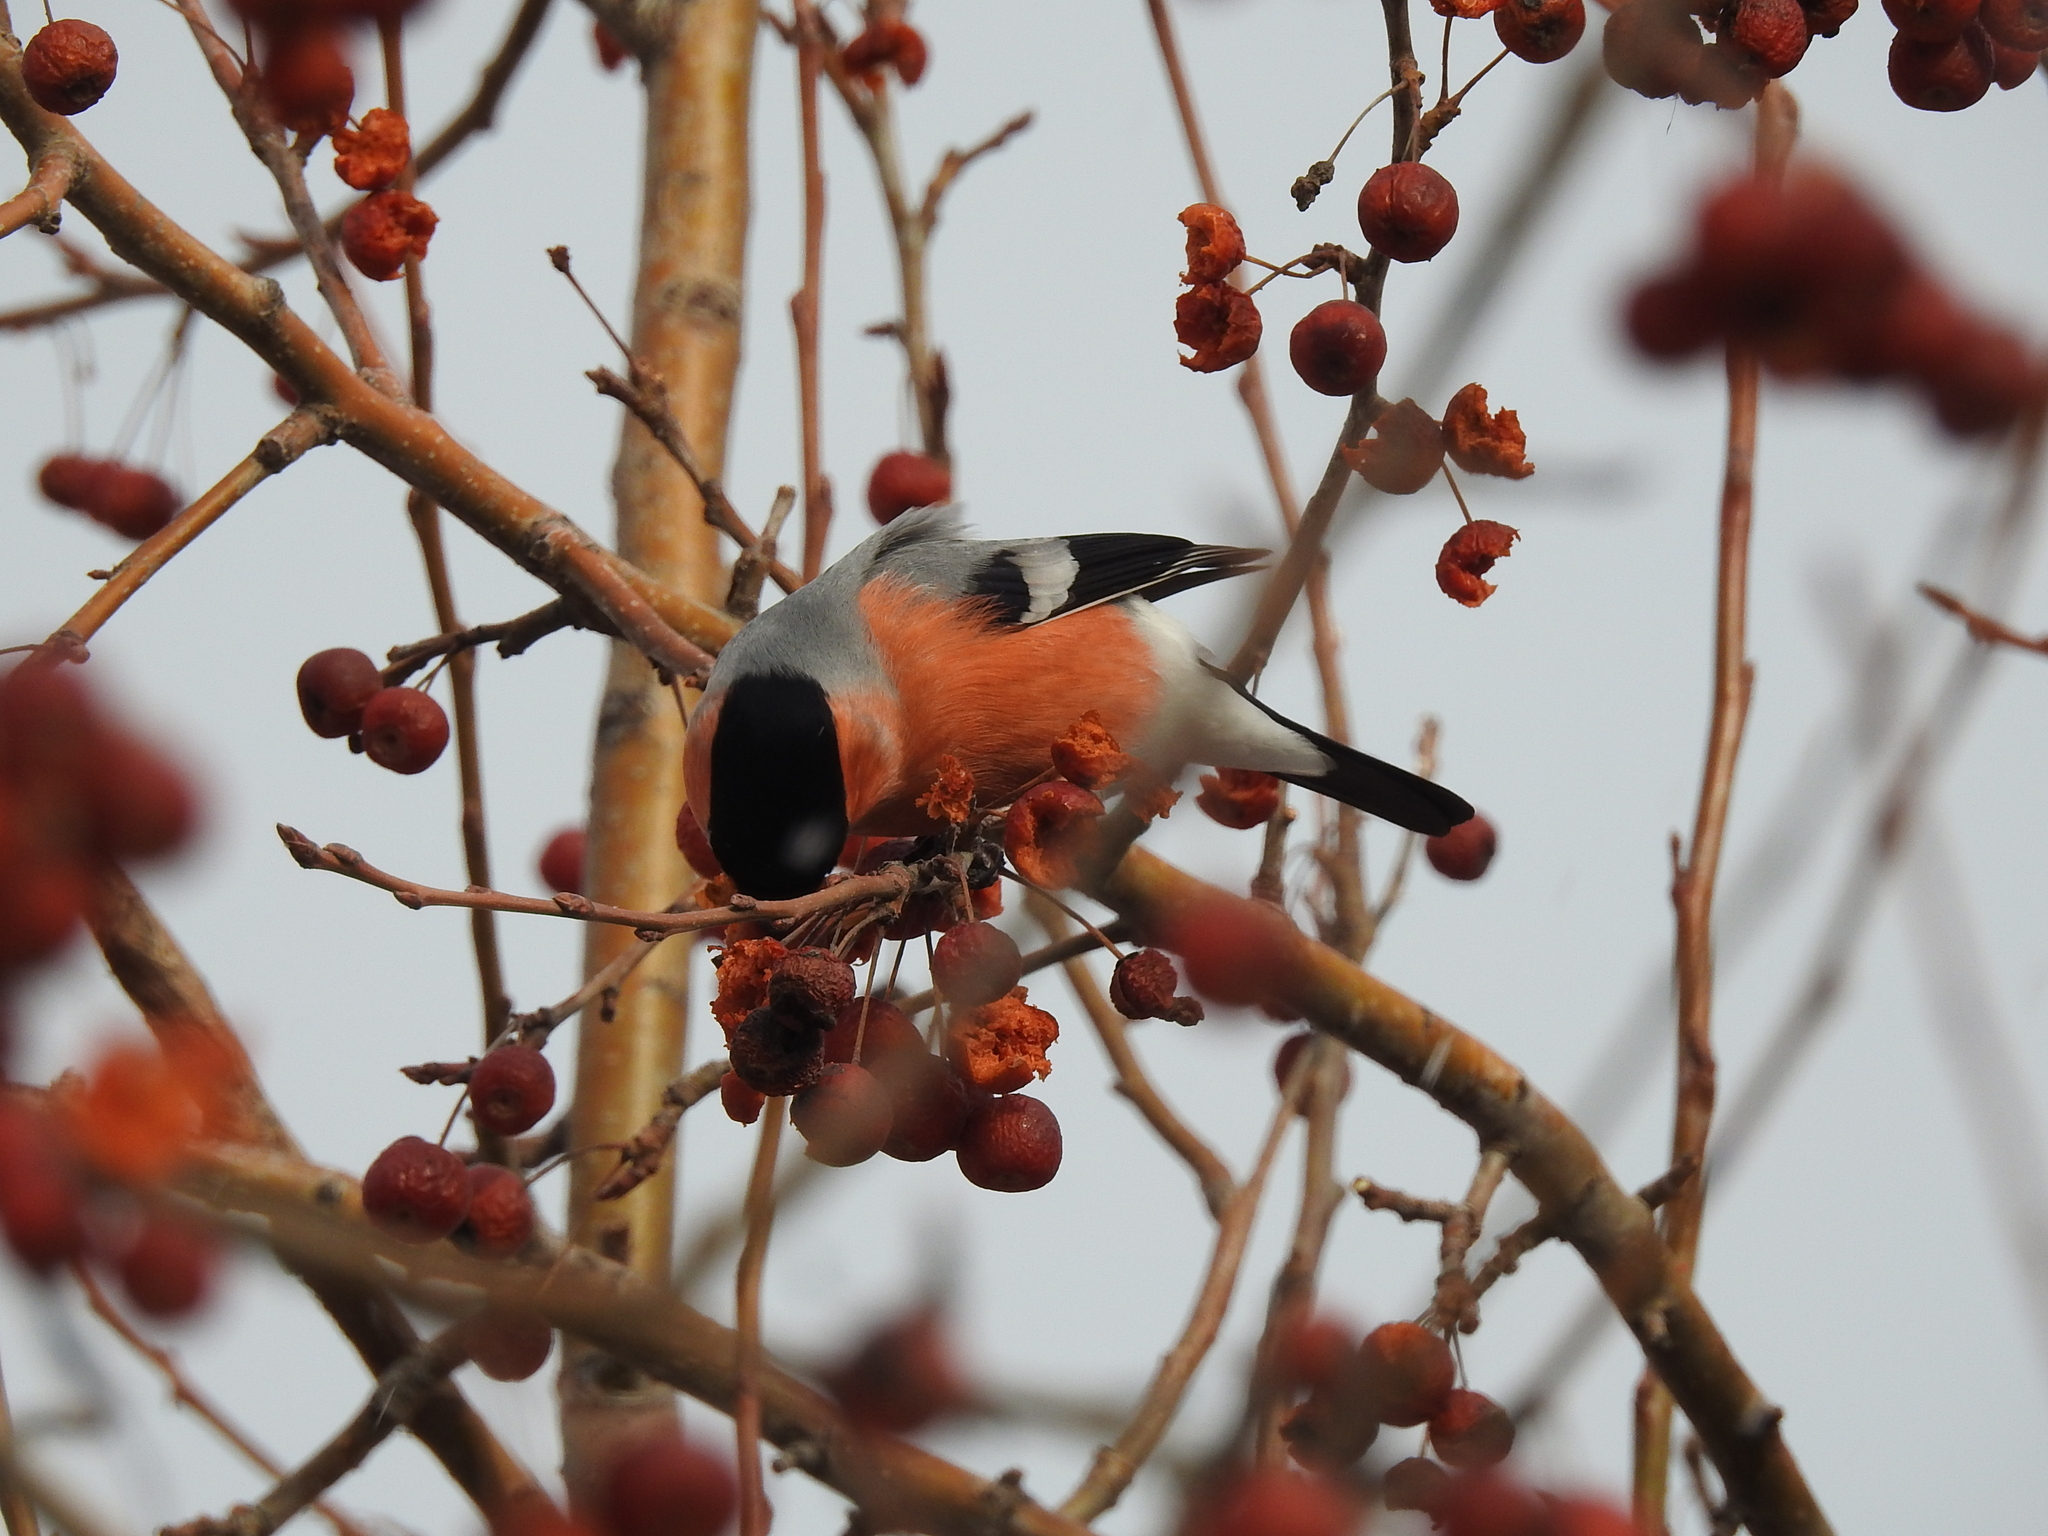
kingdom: Animalia
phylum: Chordata
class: Aves
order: Passeriformes
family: Fringillidae
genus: Pyrrhula
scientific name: Pyrrhula pyrrhula
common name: Eurasian bullfinch
